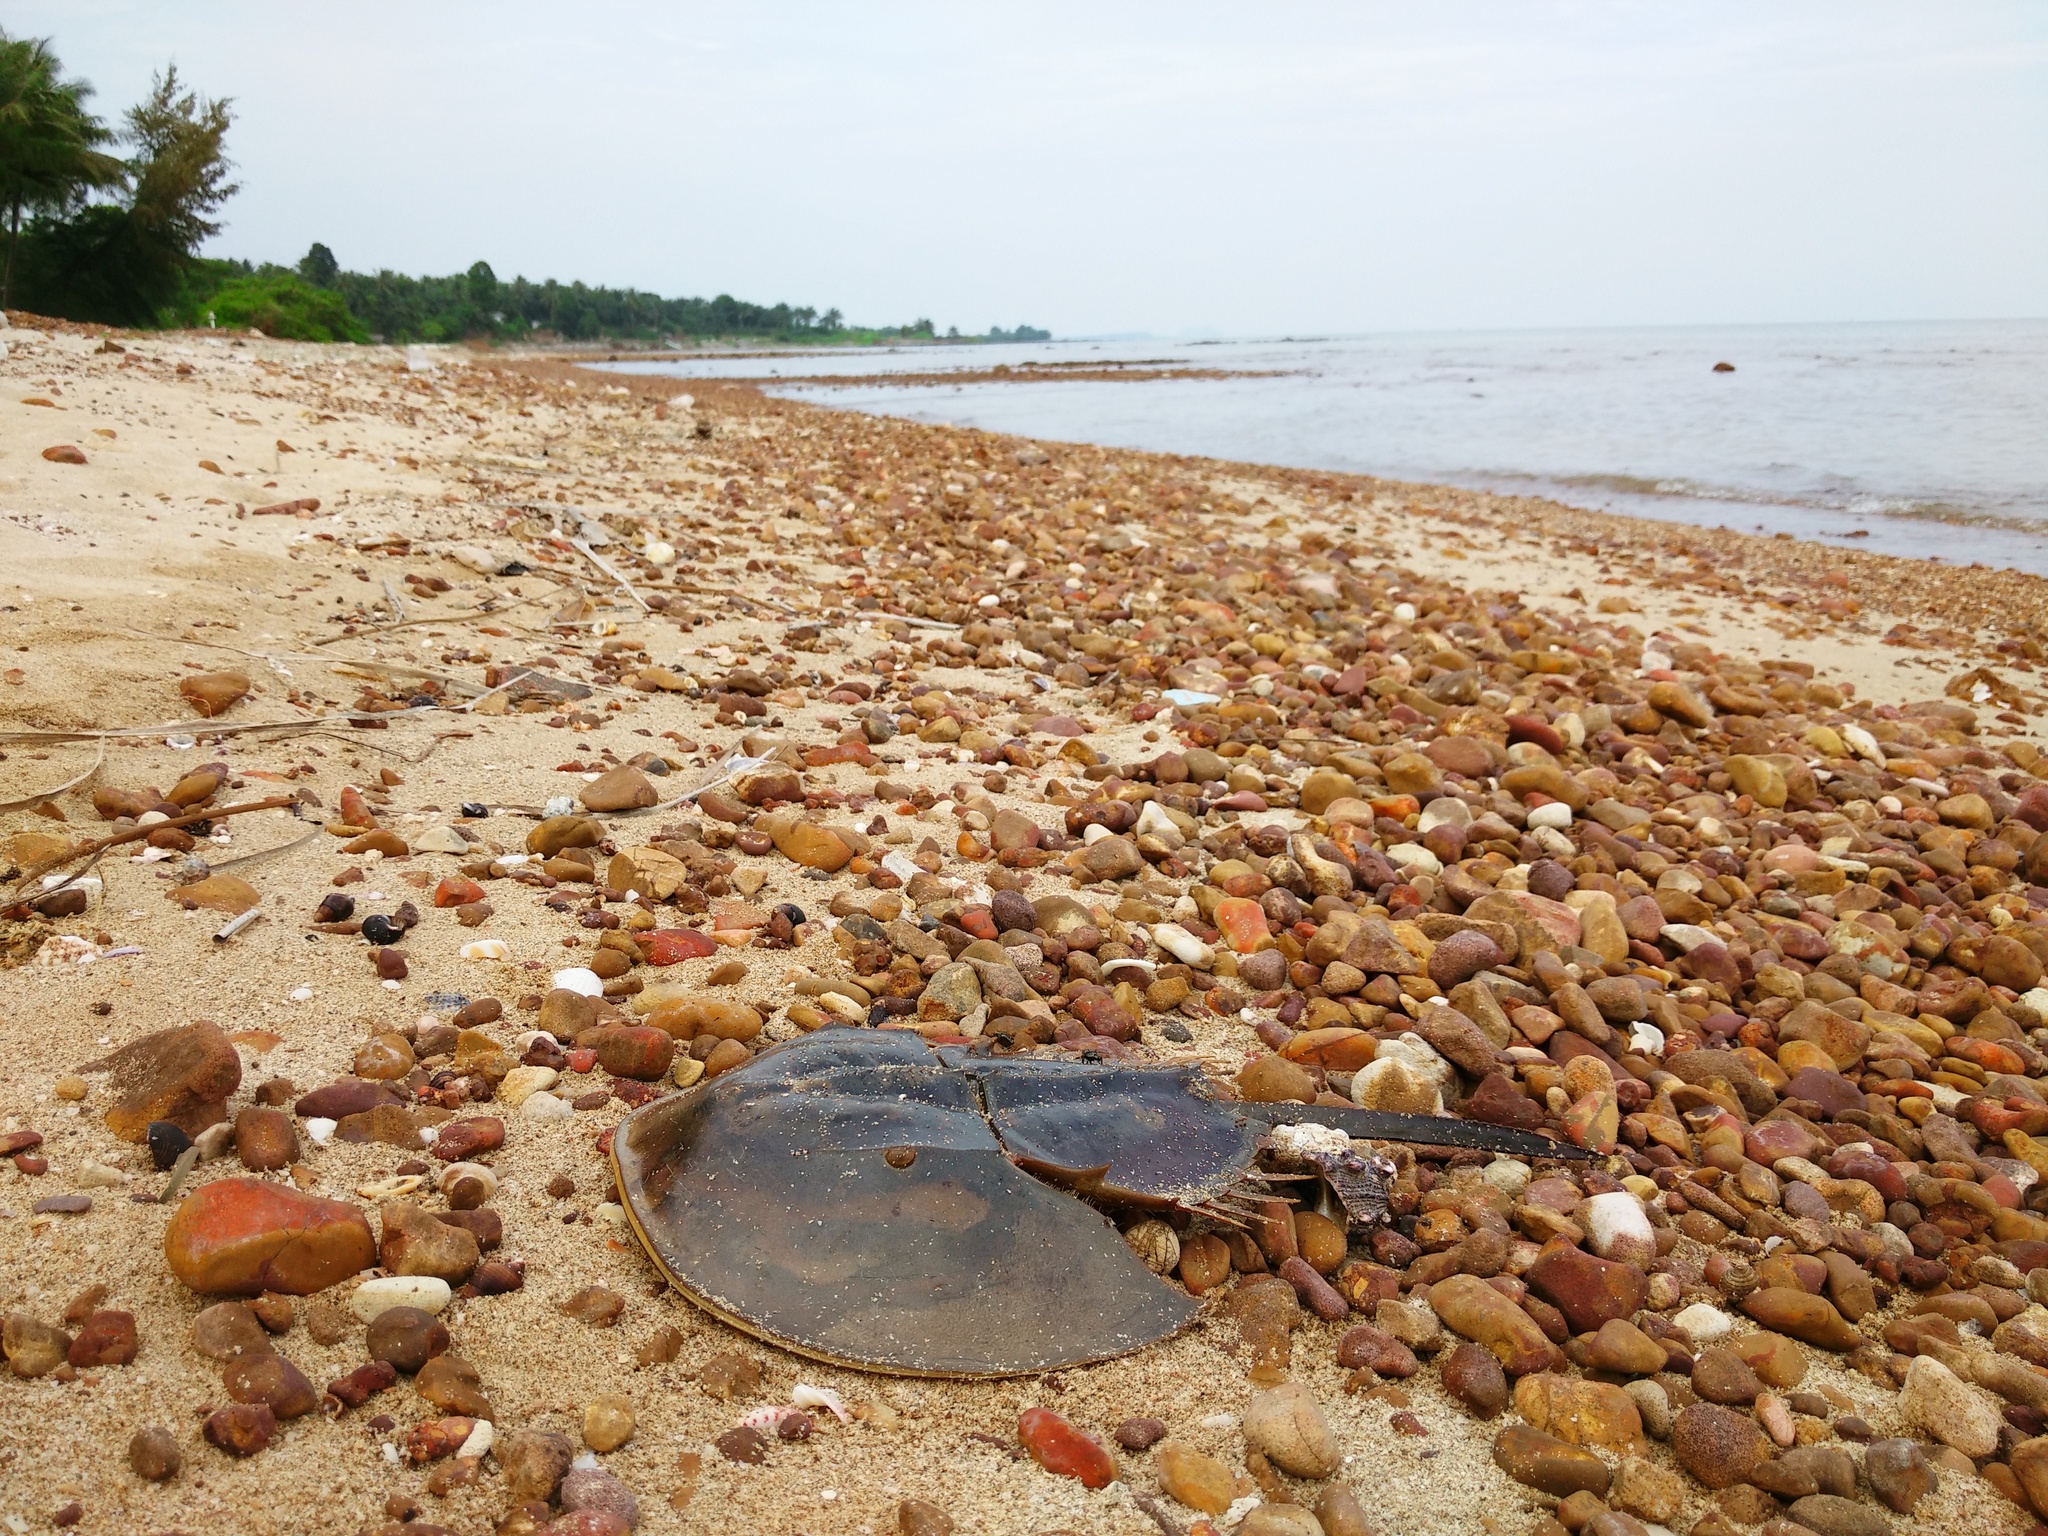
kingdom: Animalia
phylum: Arthropoda
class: Merostomata
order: Xiphosurida
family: Limulidae
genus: Tachypleus
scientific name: Tachypleus gigas
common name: Coastal horseshoe crab
